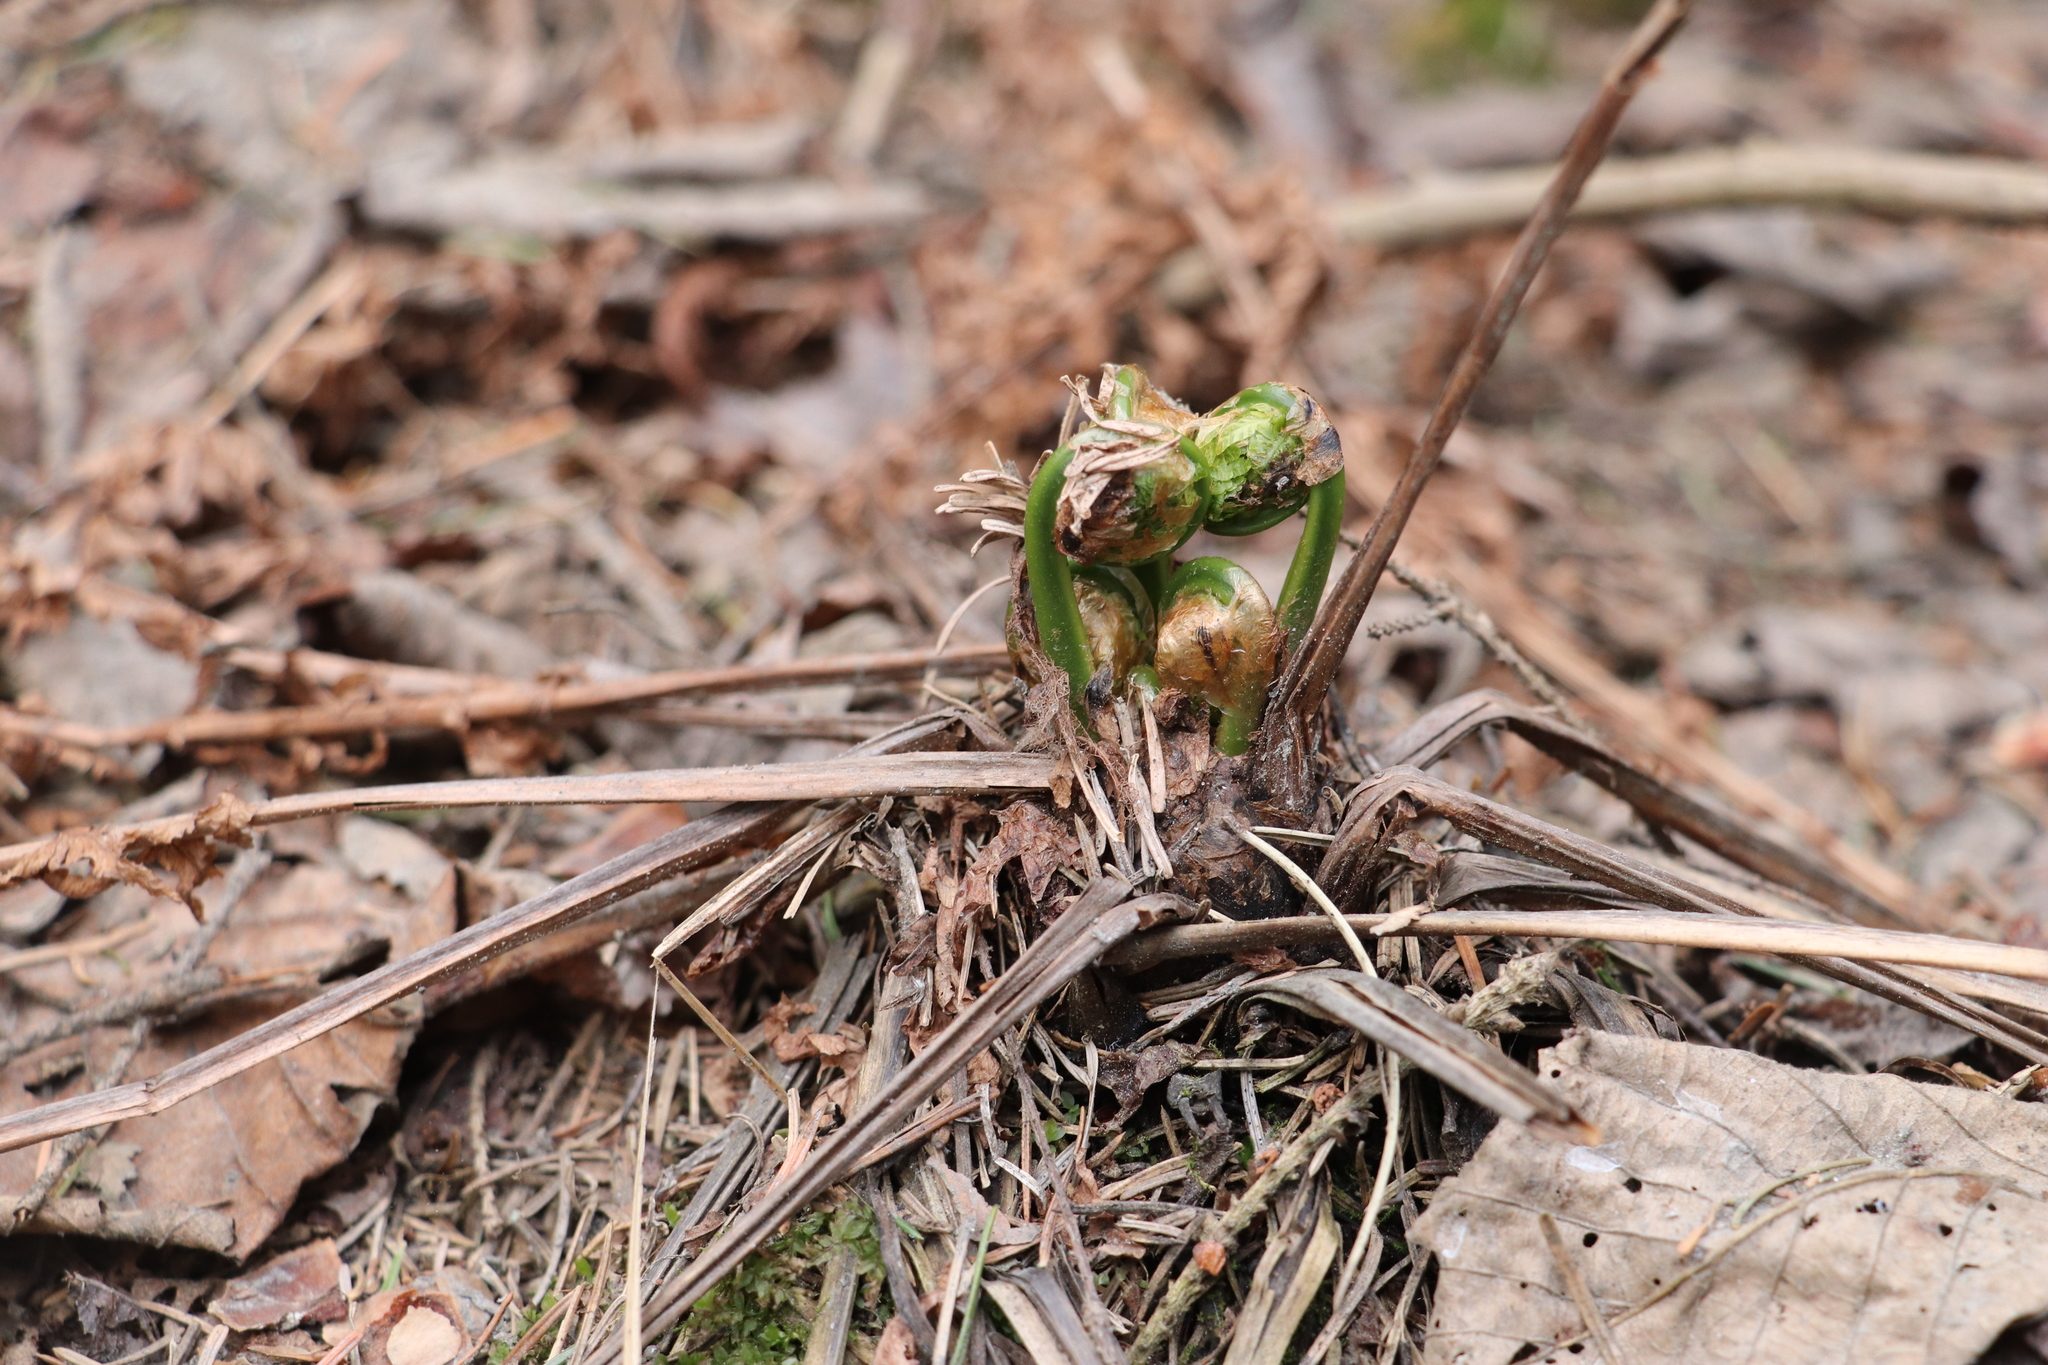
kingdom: Plantae
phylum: Tracheophyta
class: Polypodiopsida
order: Polypodiales
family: Athyriaceae
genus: Athyrium
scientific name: Athyrium filix-femina
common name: Lady fern
